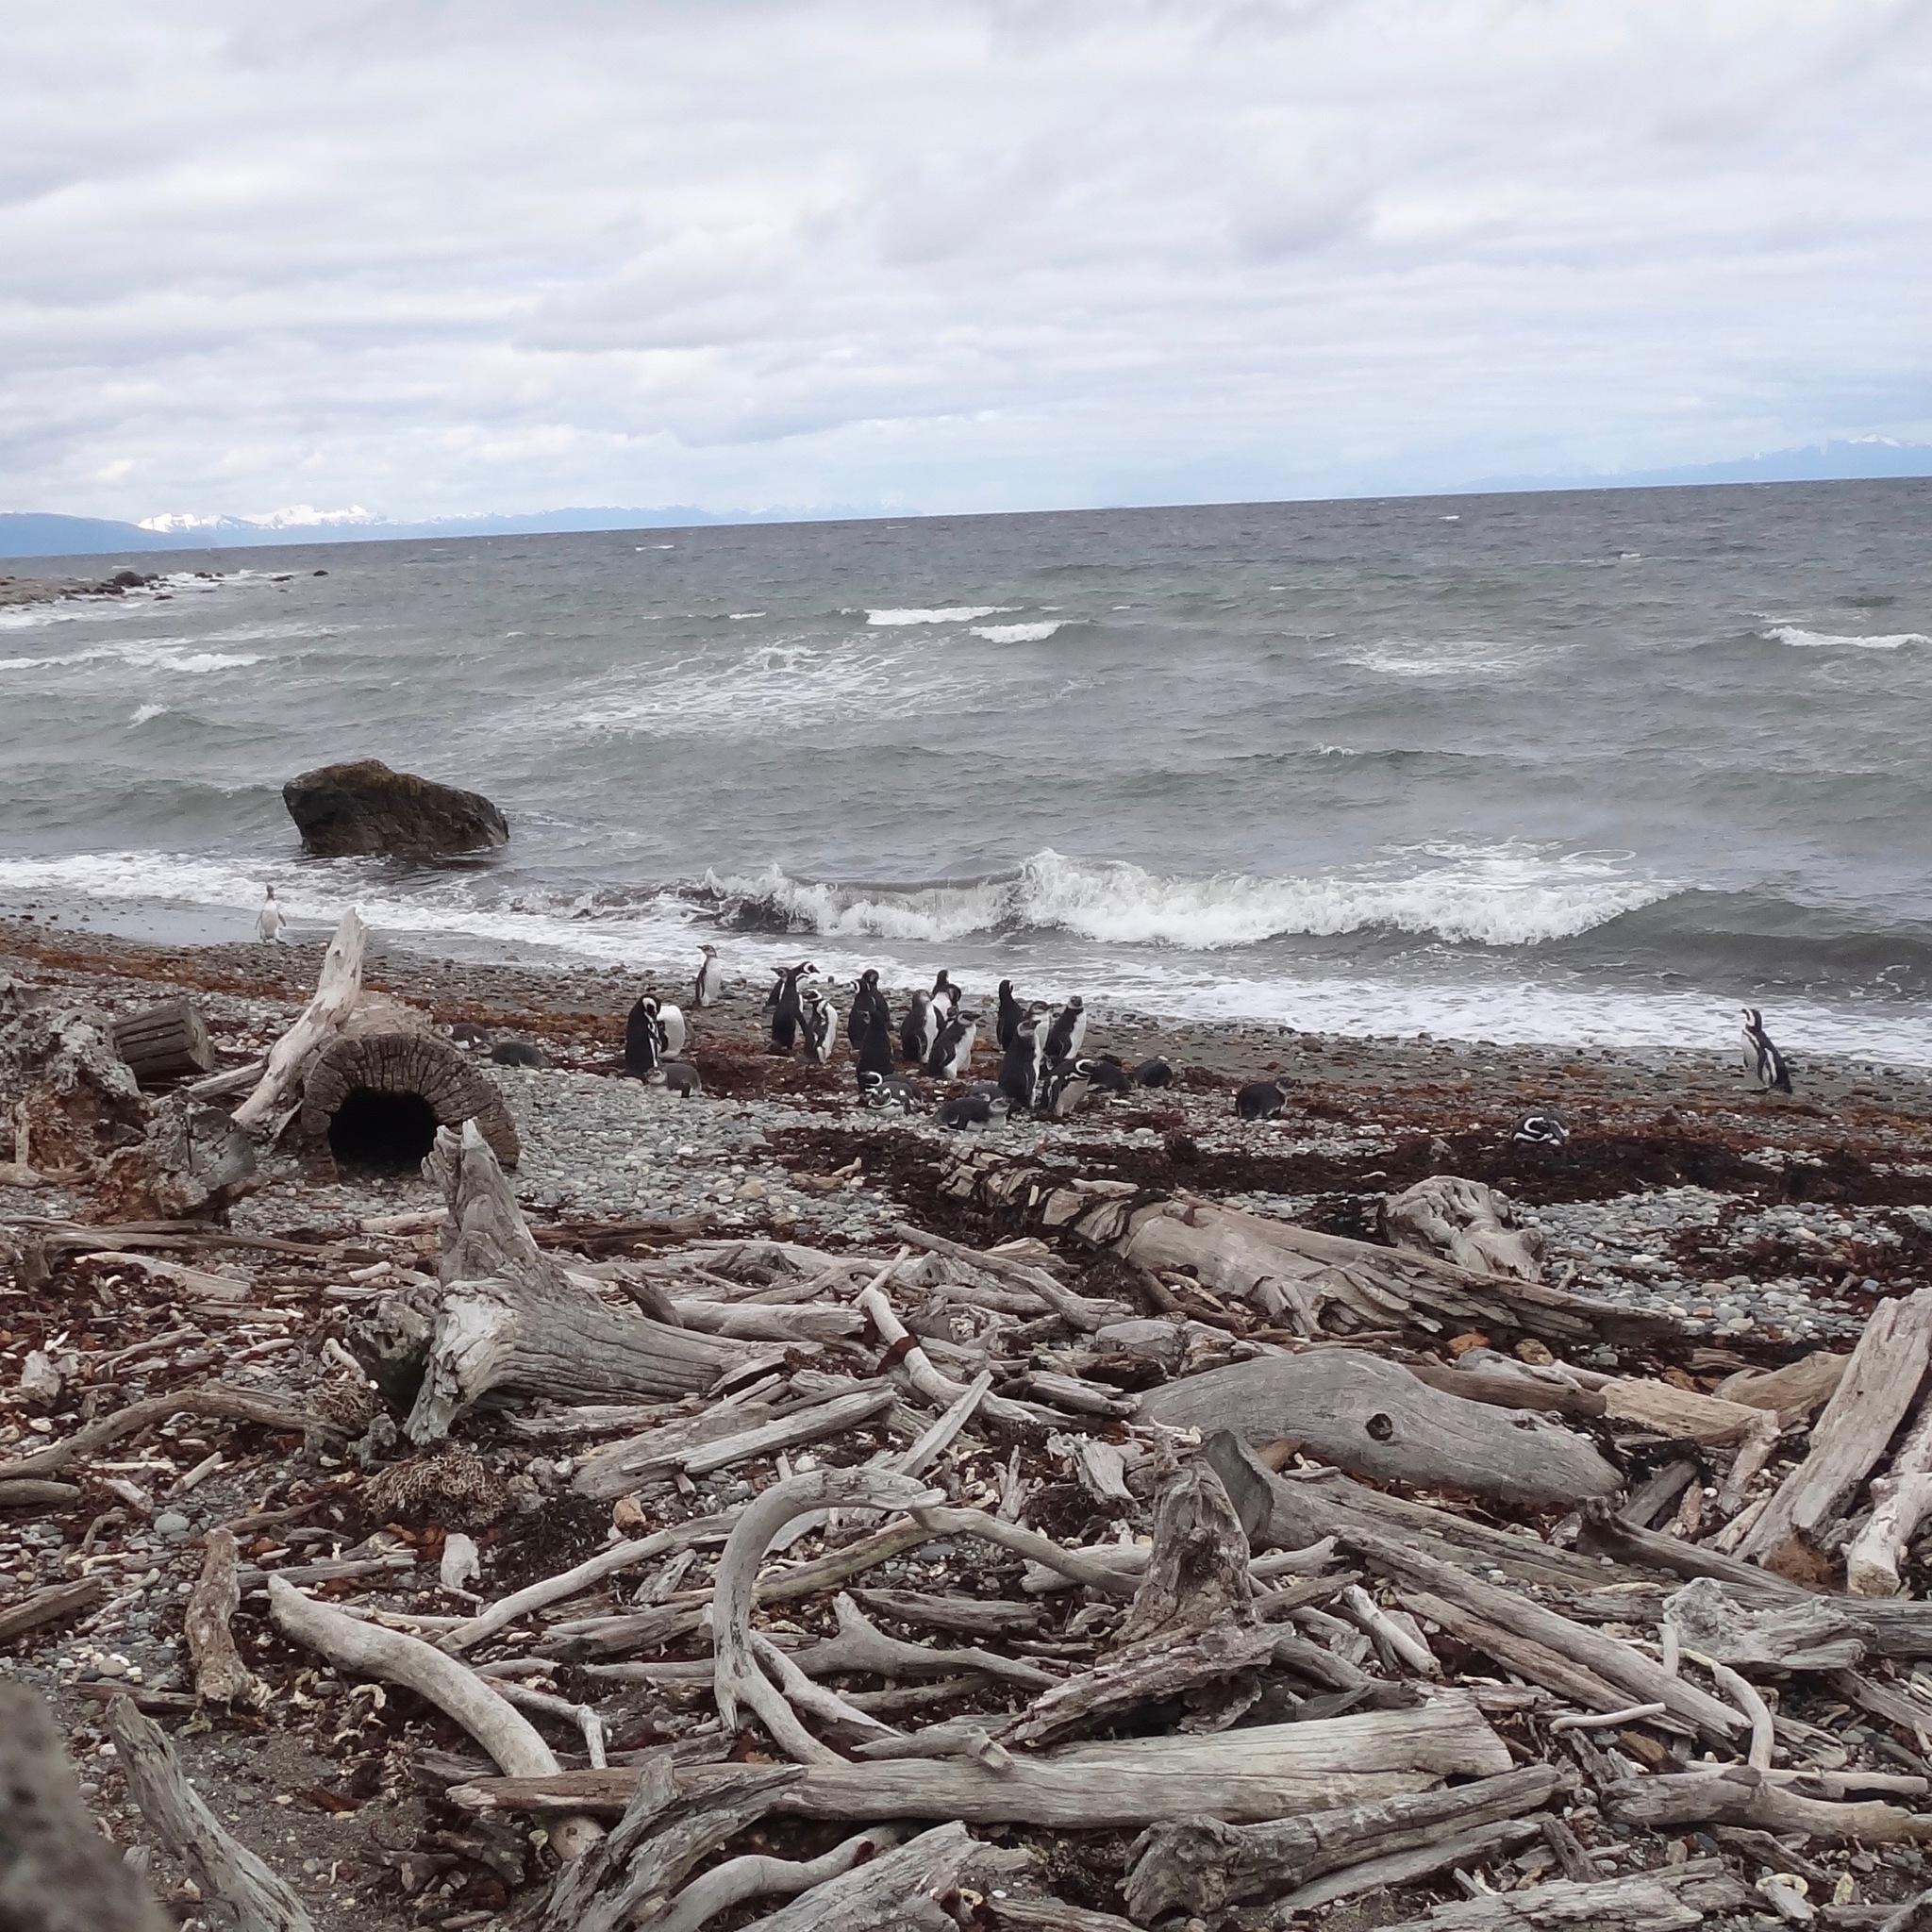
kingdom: Animalia
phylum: Chordata
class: Aves
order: Sphenisciformes
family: Spheniscidae
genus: Spheniscus
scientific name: Spheniscus magellanicus
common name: Magellanic penguin
